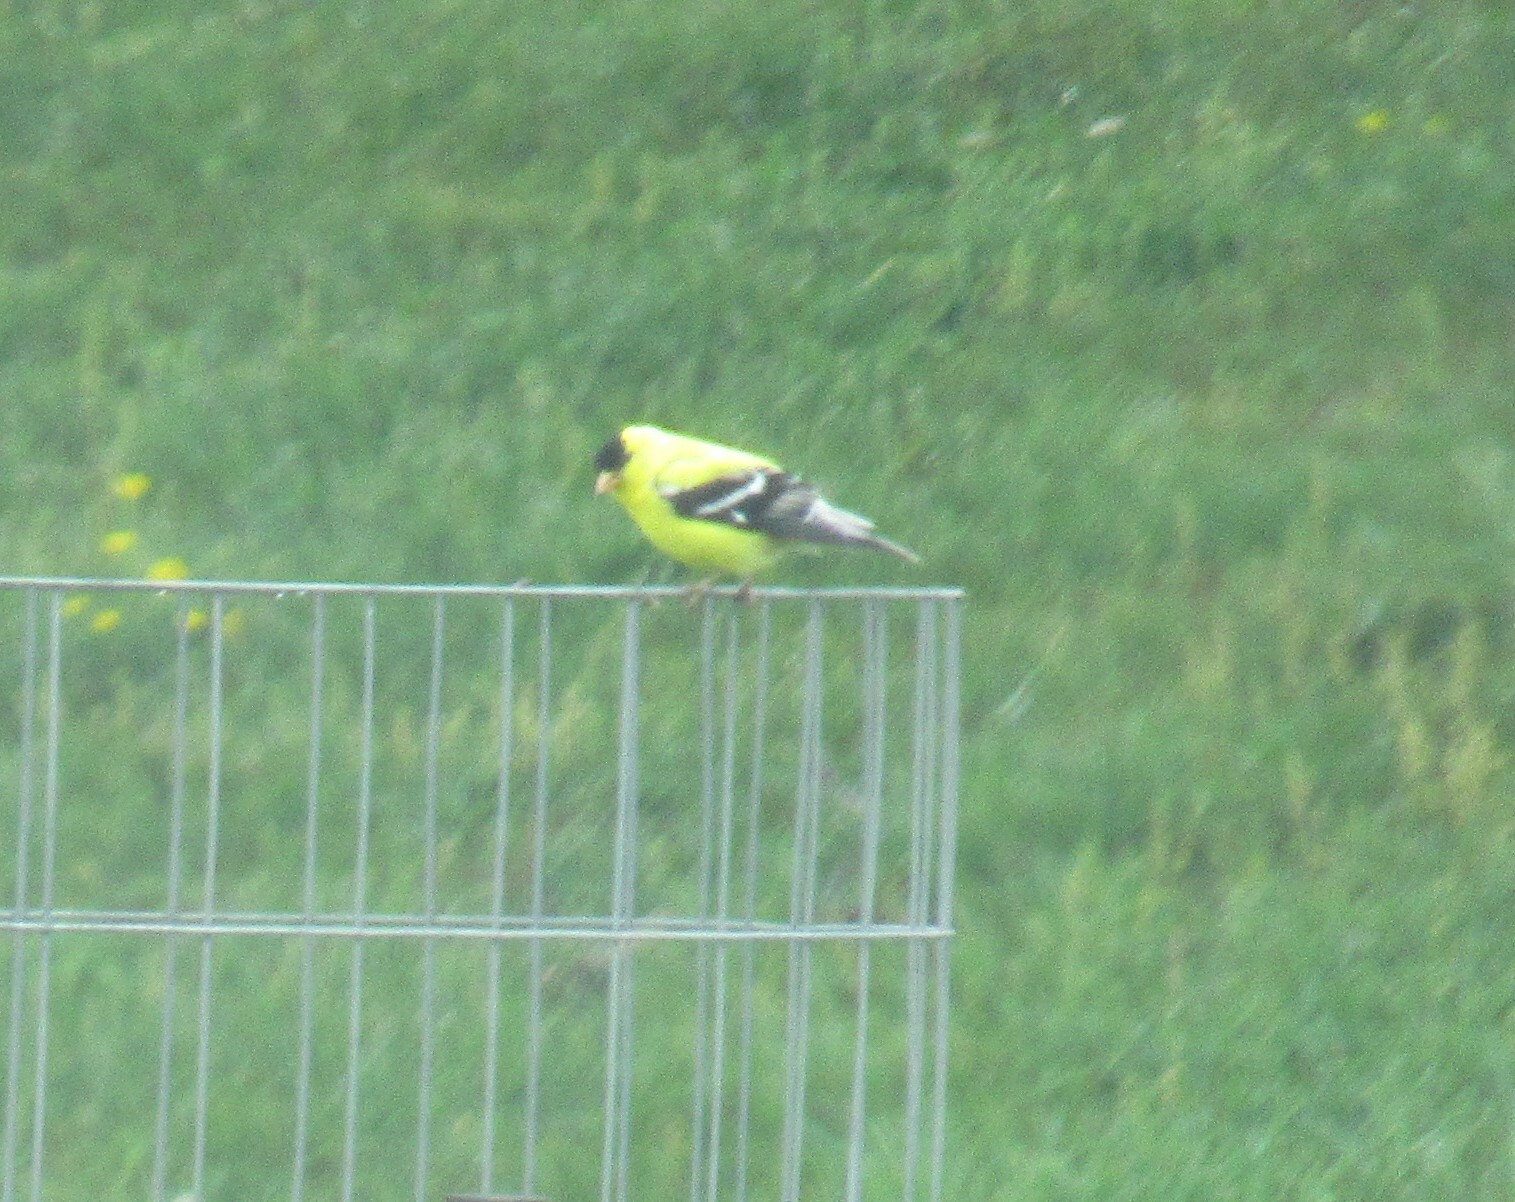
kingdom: Animalia
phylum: Chordata
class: Aves
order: Passeriformes
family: Fringillidae
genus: Spinus
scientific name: Spinus tristis
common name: American goldfinch
